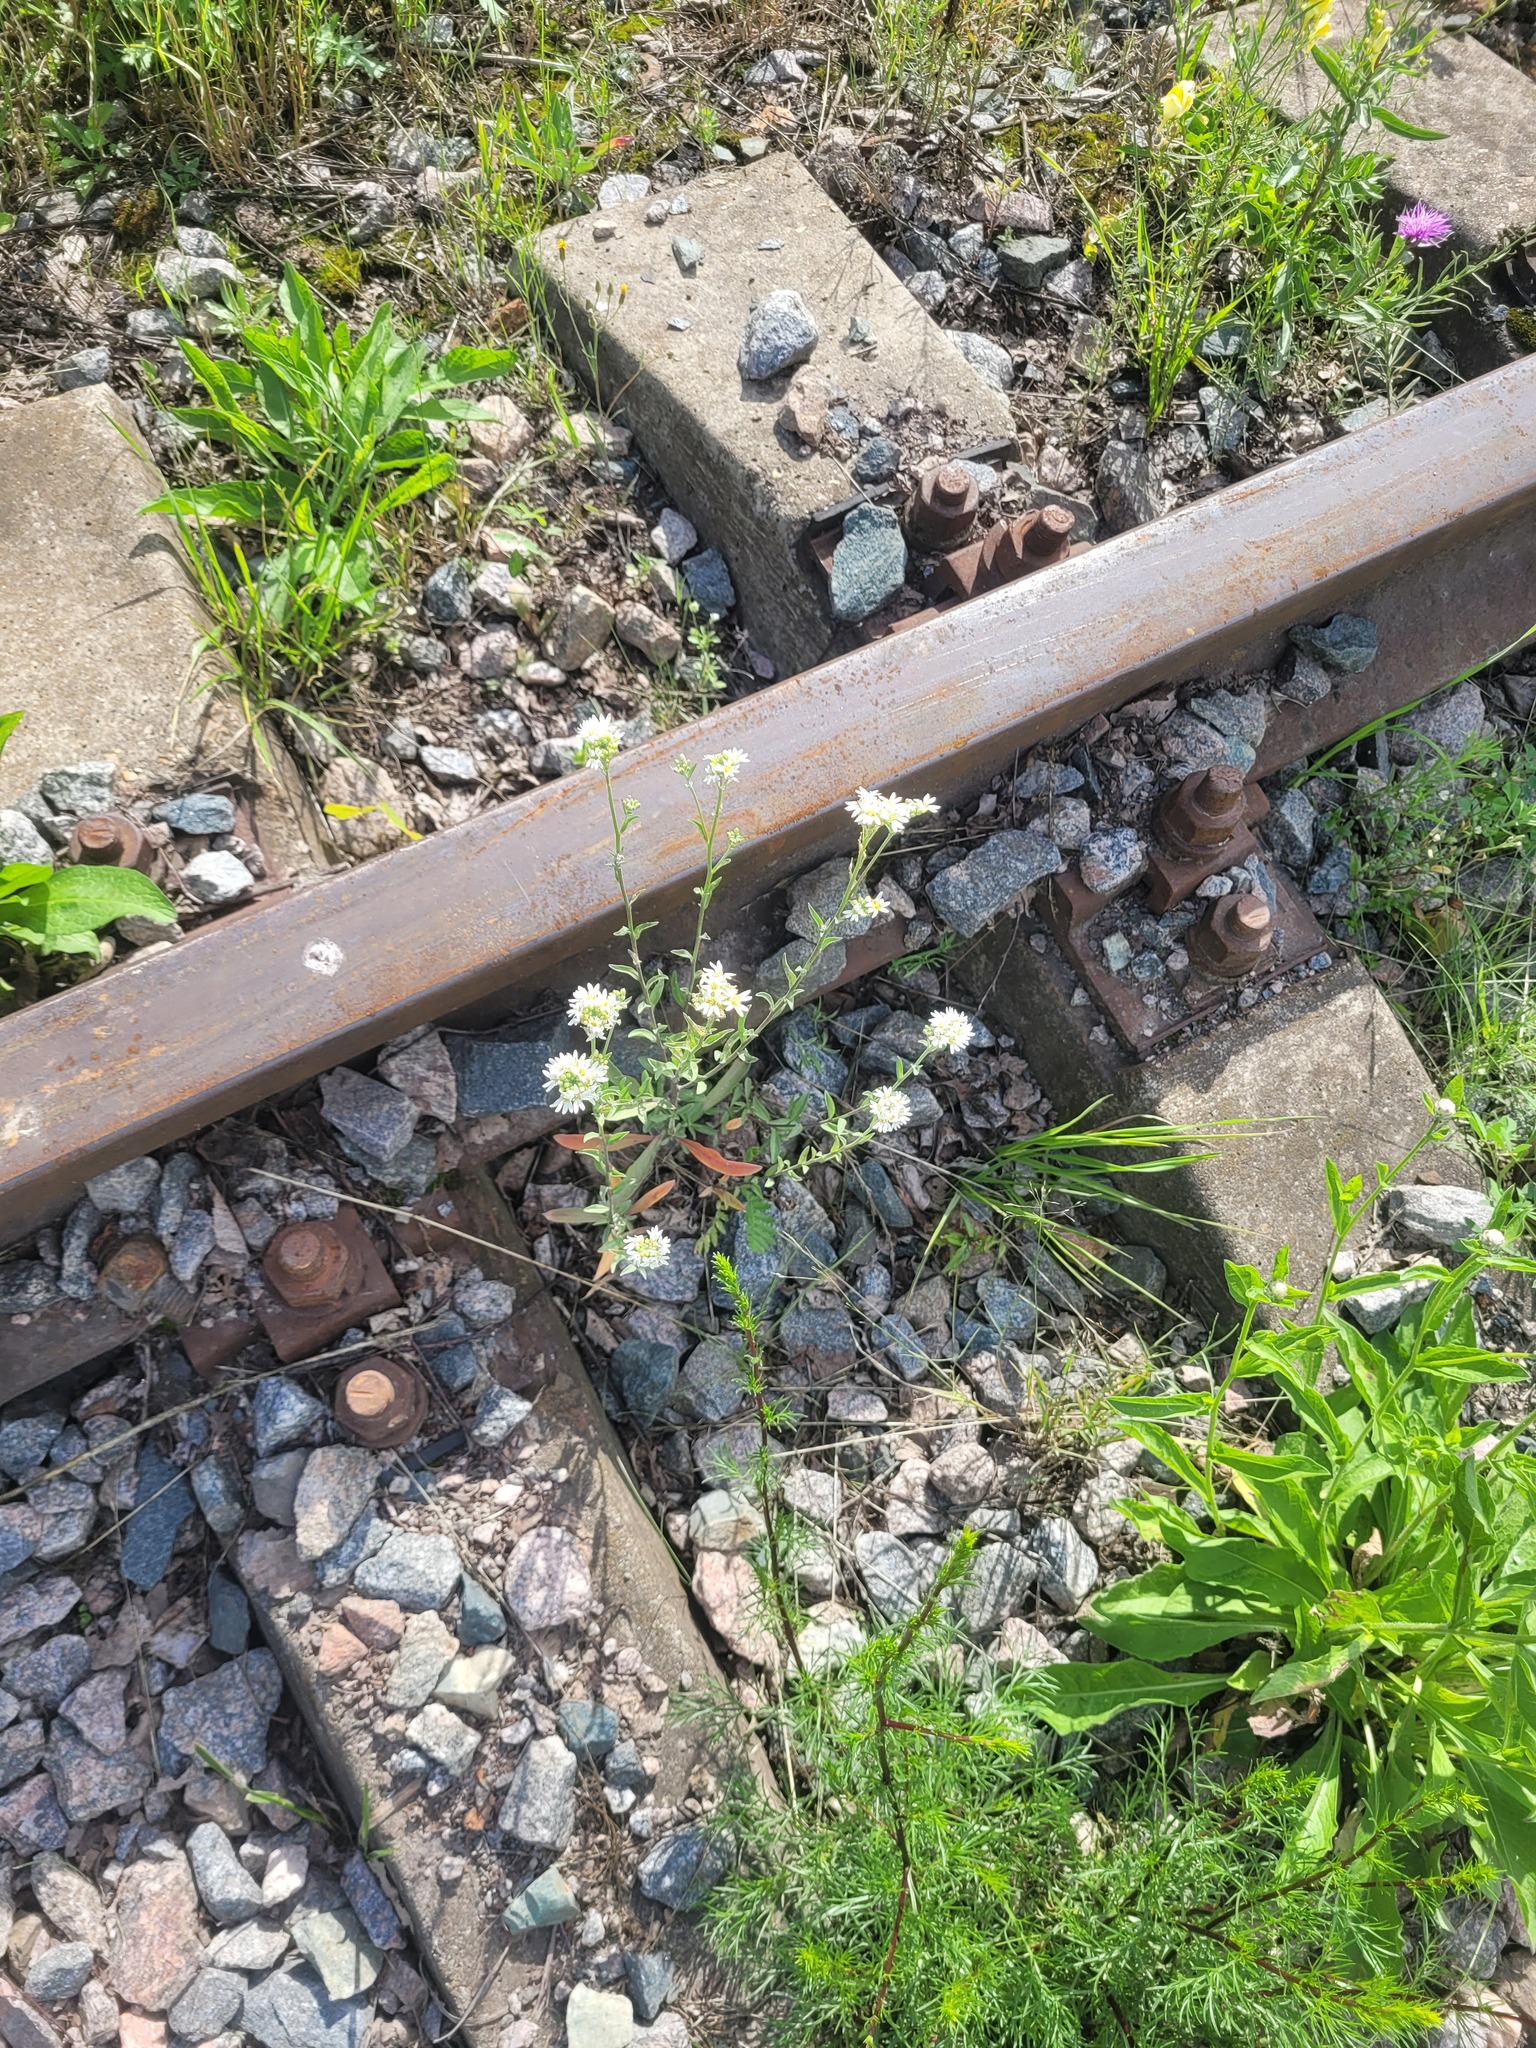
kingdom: Plantae
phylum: Tracheophyta
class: Magnoliopsida
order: Brassicales
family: Brassicaceae
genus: Berteroa
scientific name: Berteroa incana
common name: Hoary alison
